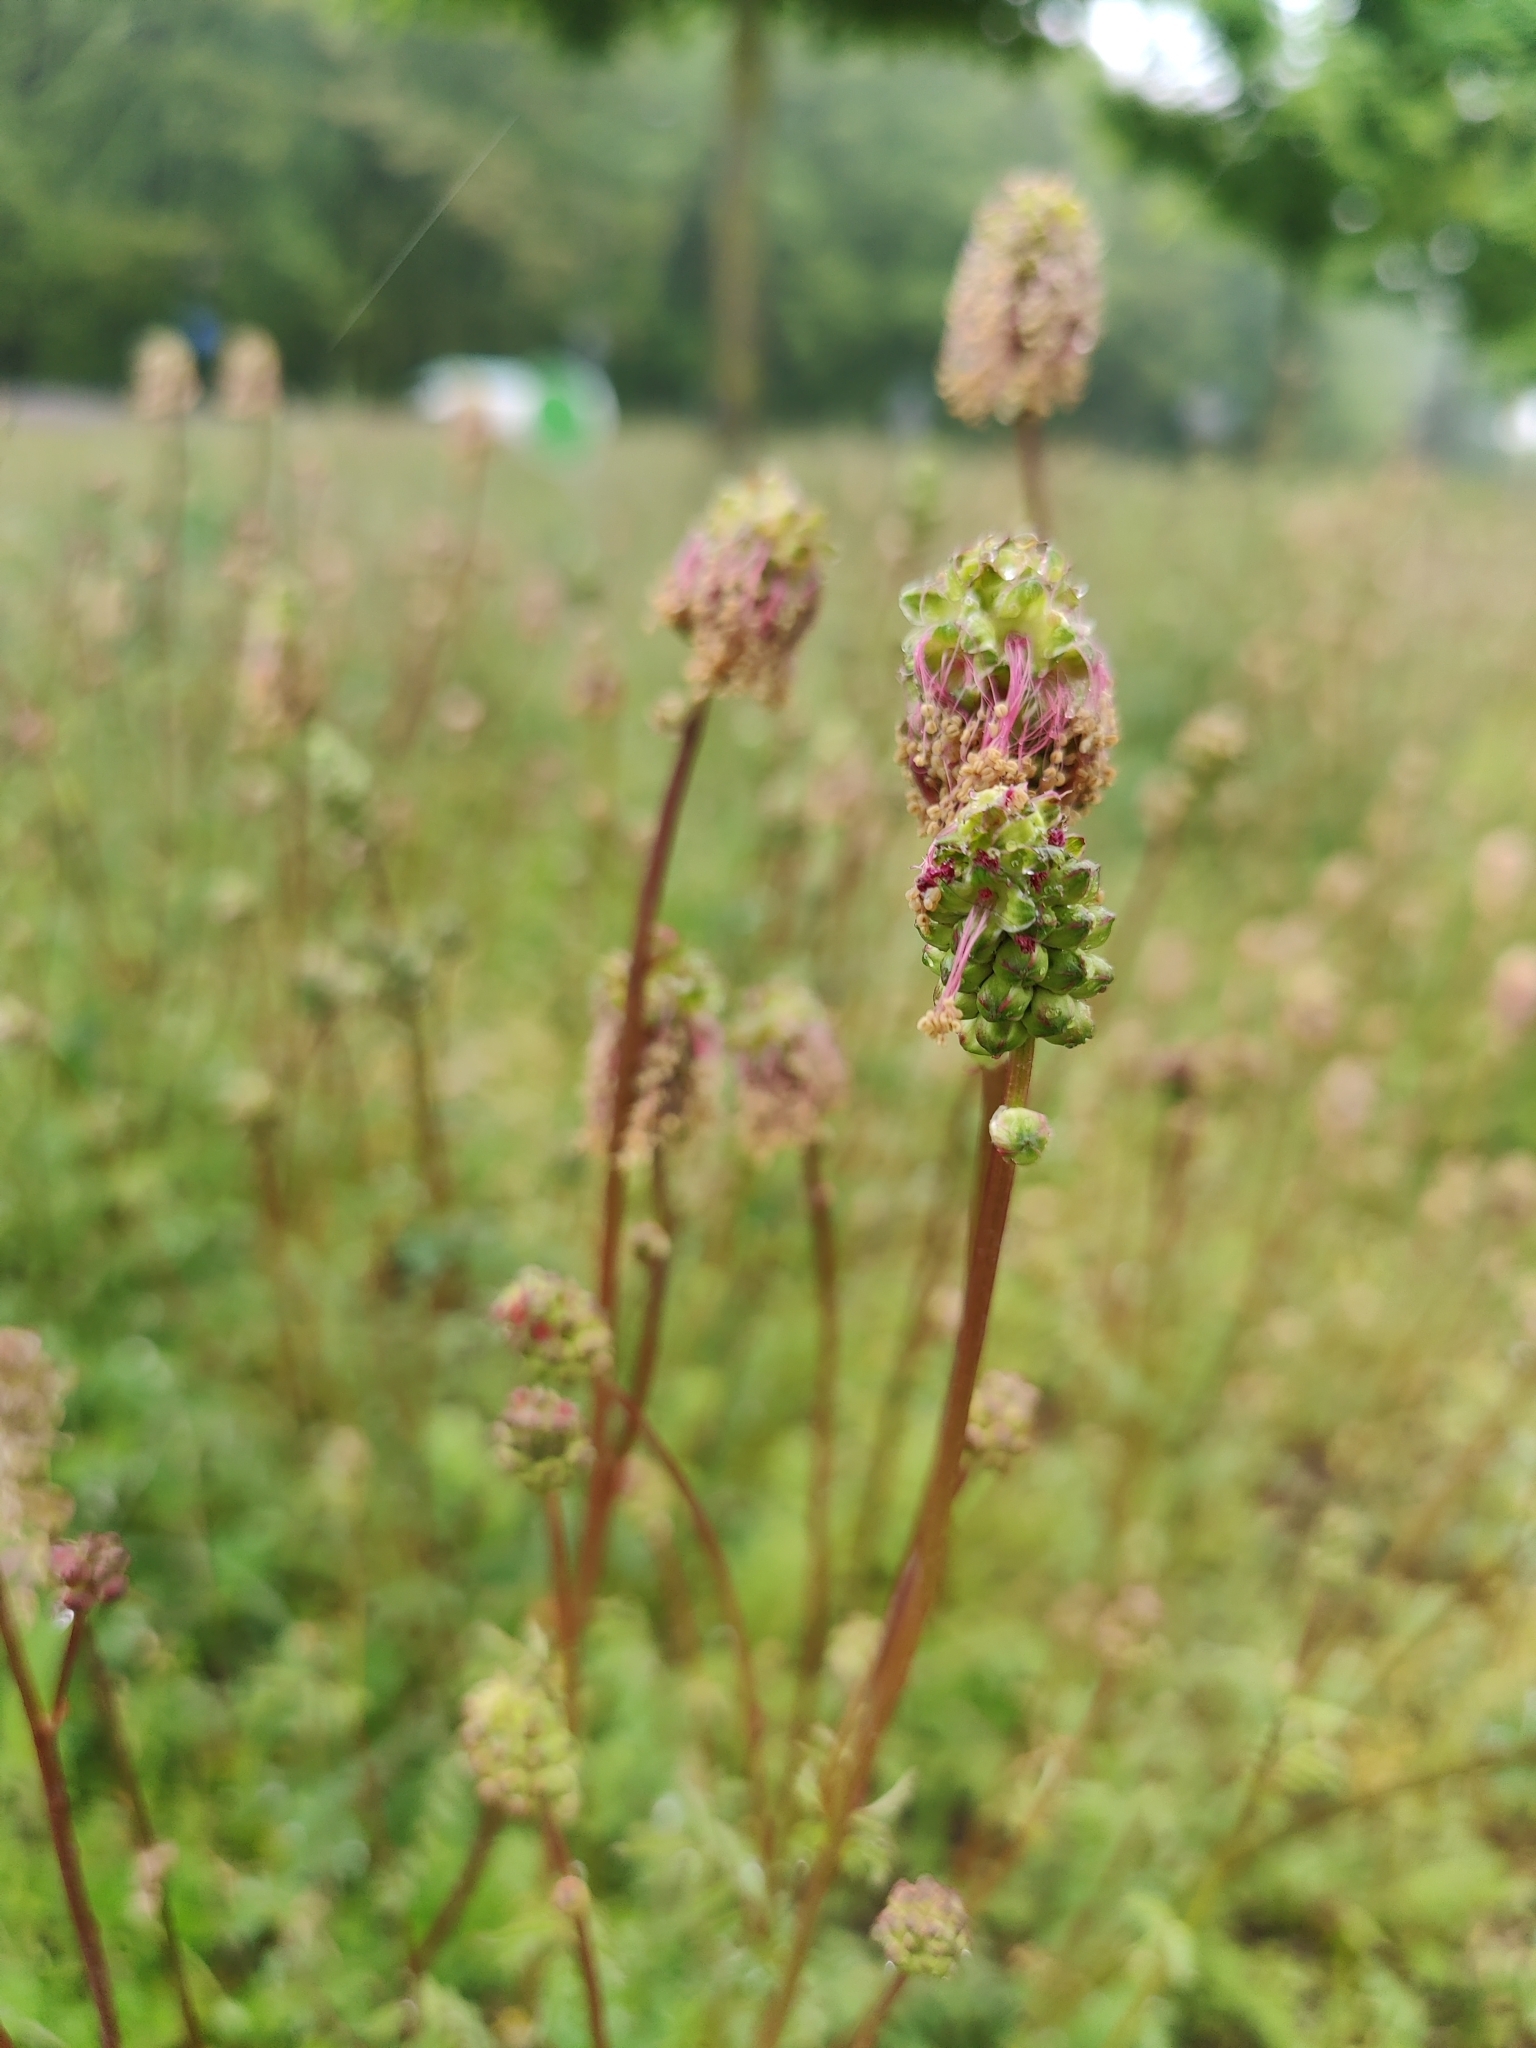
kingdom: Plantae
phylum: Tracheophyta
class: Magnoliopsida
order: Rosales
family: Rosaceae
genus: Poterium
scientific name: Poterium sanguisorba
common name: Salad burnet
